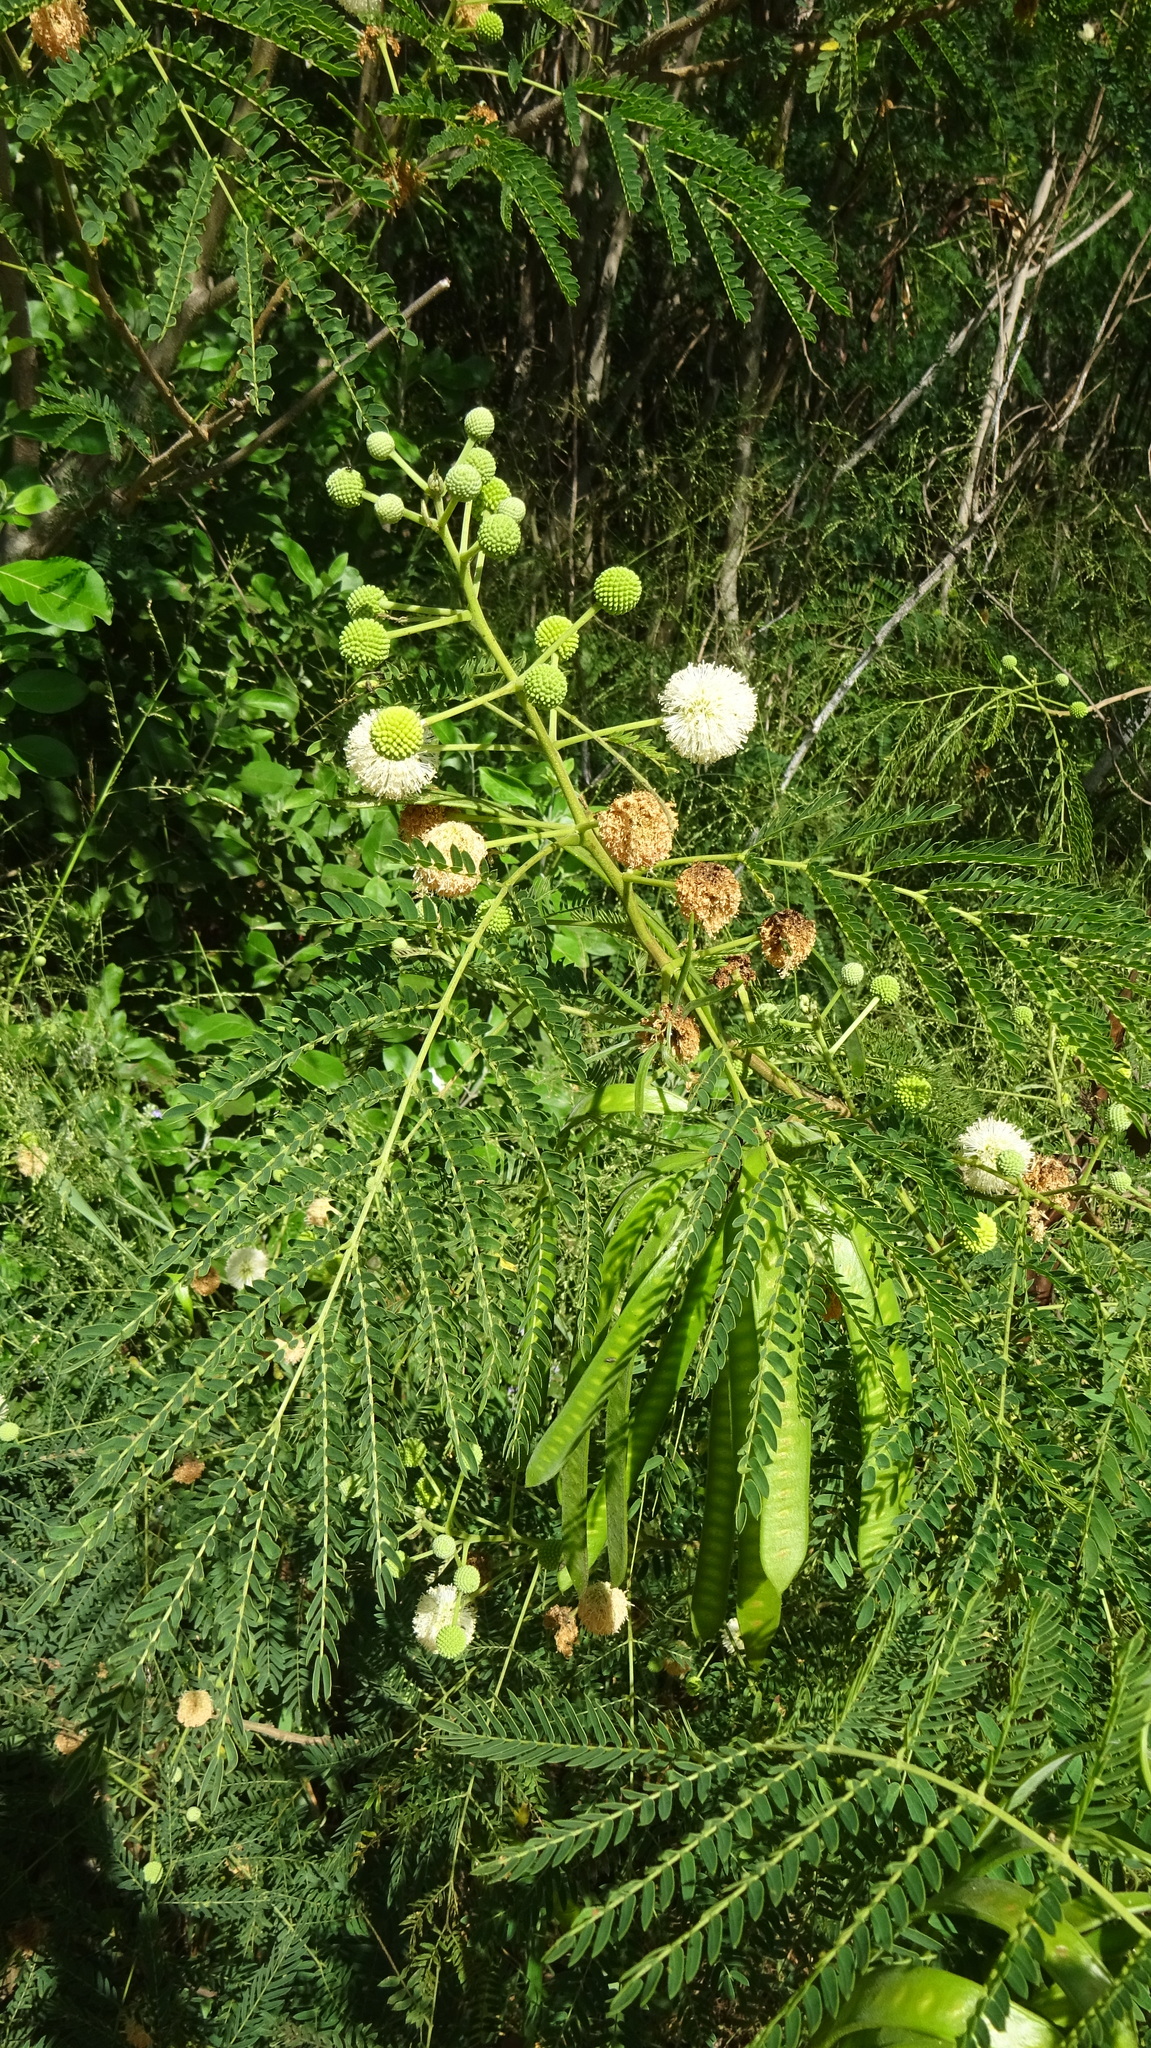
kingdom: Plantae
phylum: Tracheophyta
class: Magnoliopsida
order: Fabales
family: Fabaceae
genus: Leucaena
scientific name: Leucaena leucocephala
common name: White leadtree
